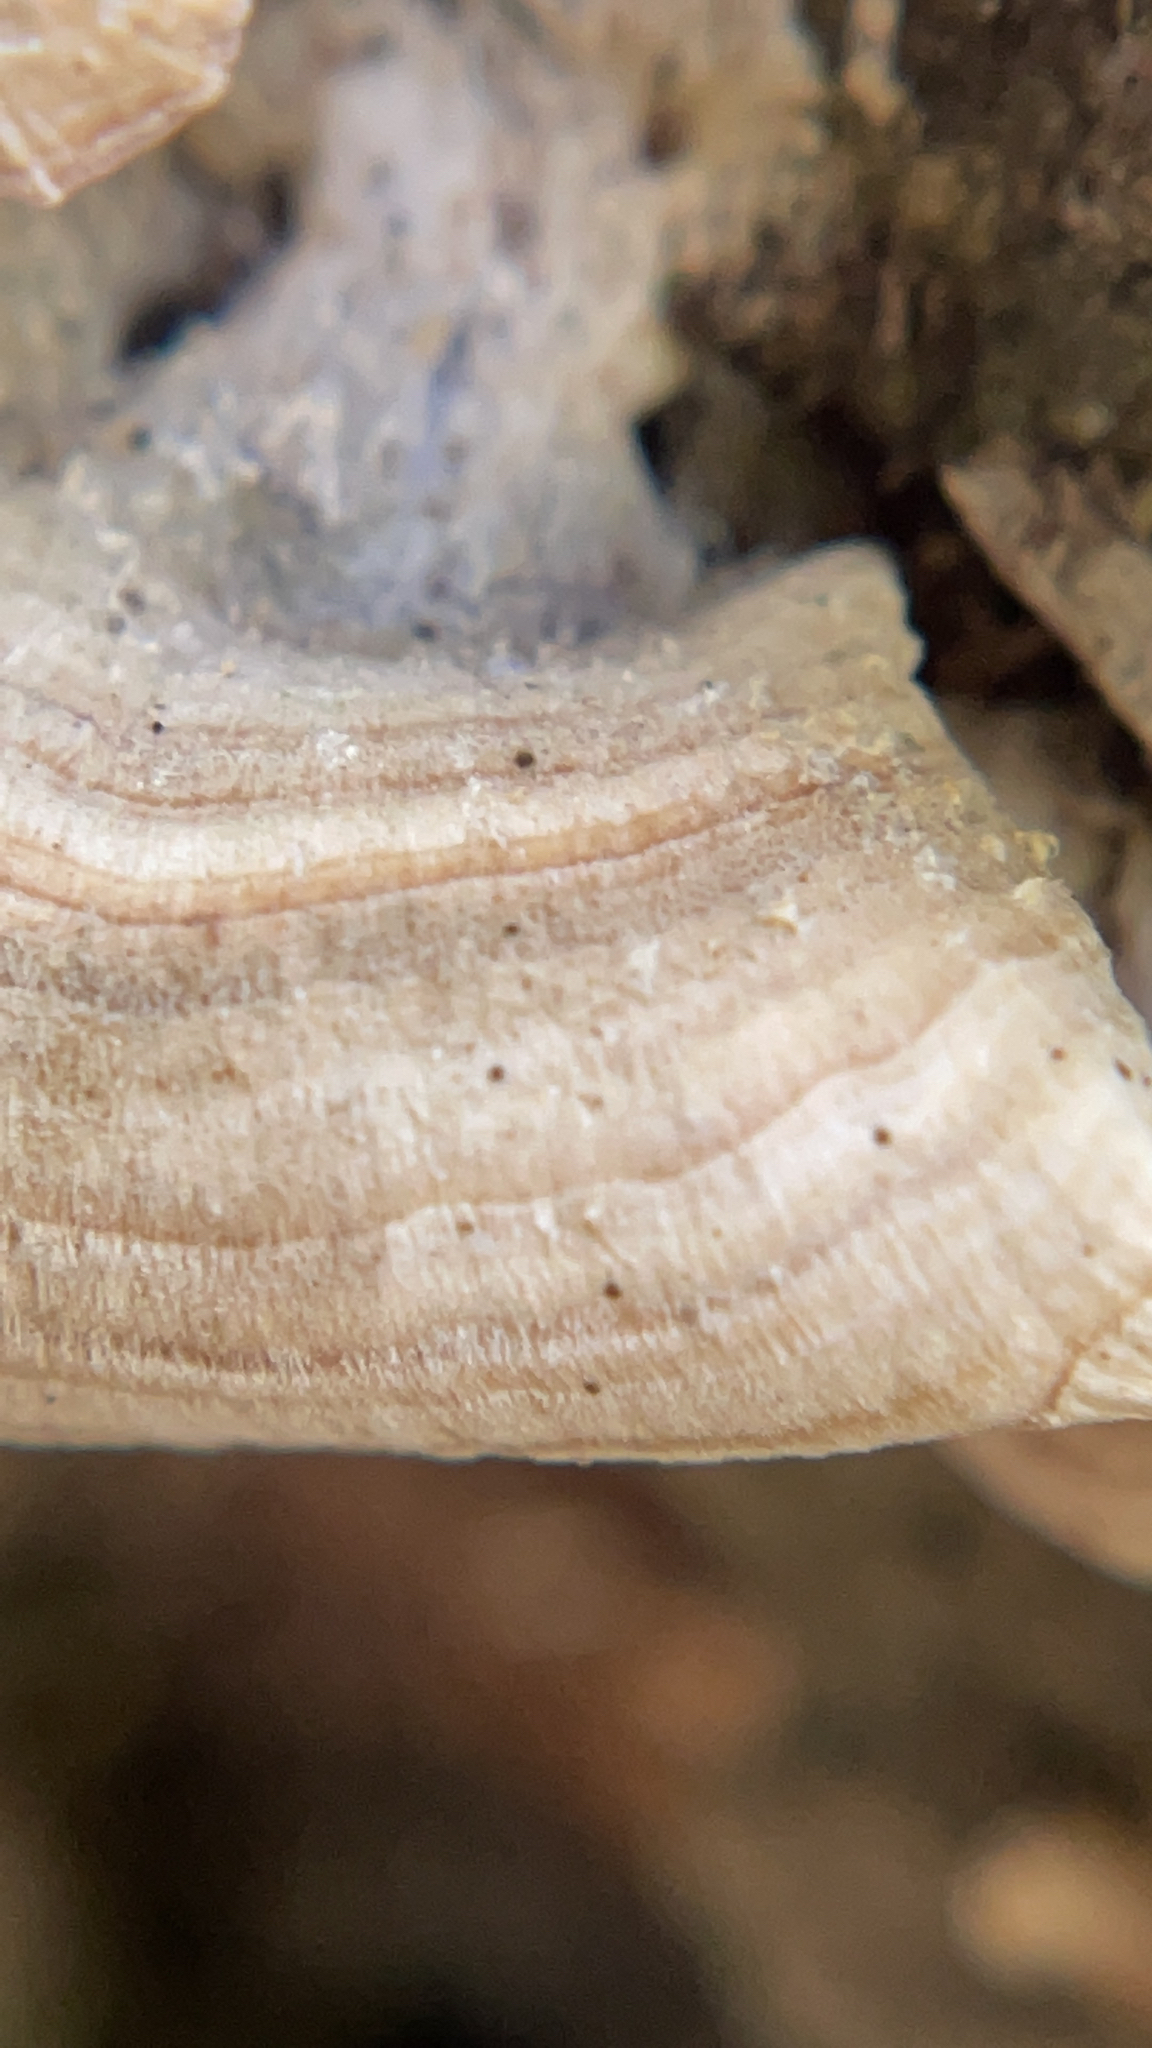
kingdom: Fungi
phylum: Ascomycota
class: Eurotiomycetes
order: Mycocaliciales
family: Mycocaliciaceae
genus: Phaeocalicium
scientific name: Phaeocalicium polyporaeum
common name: Fairy pins
